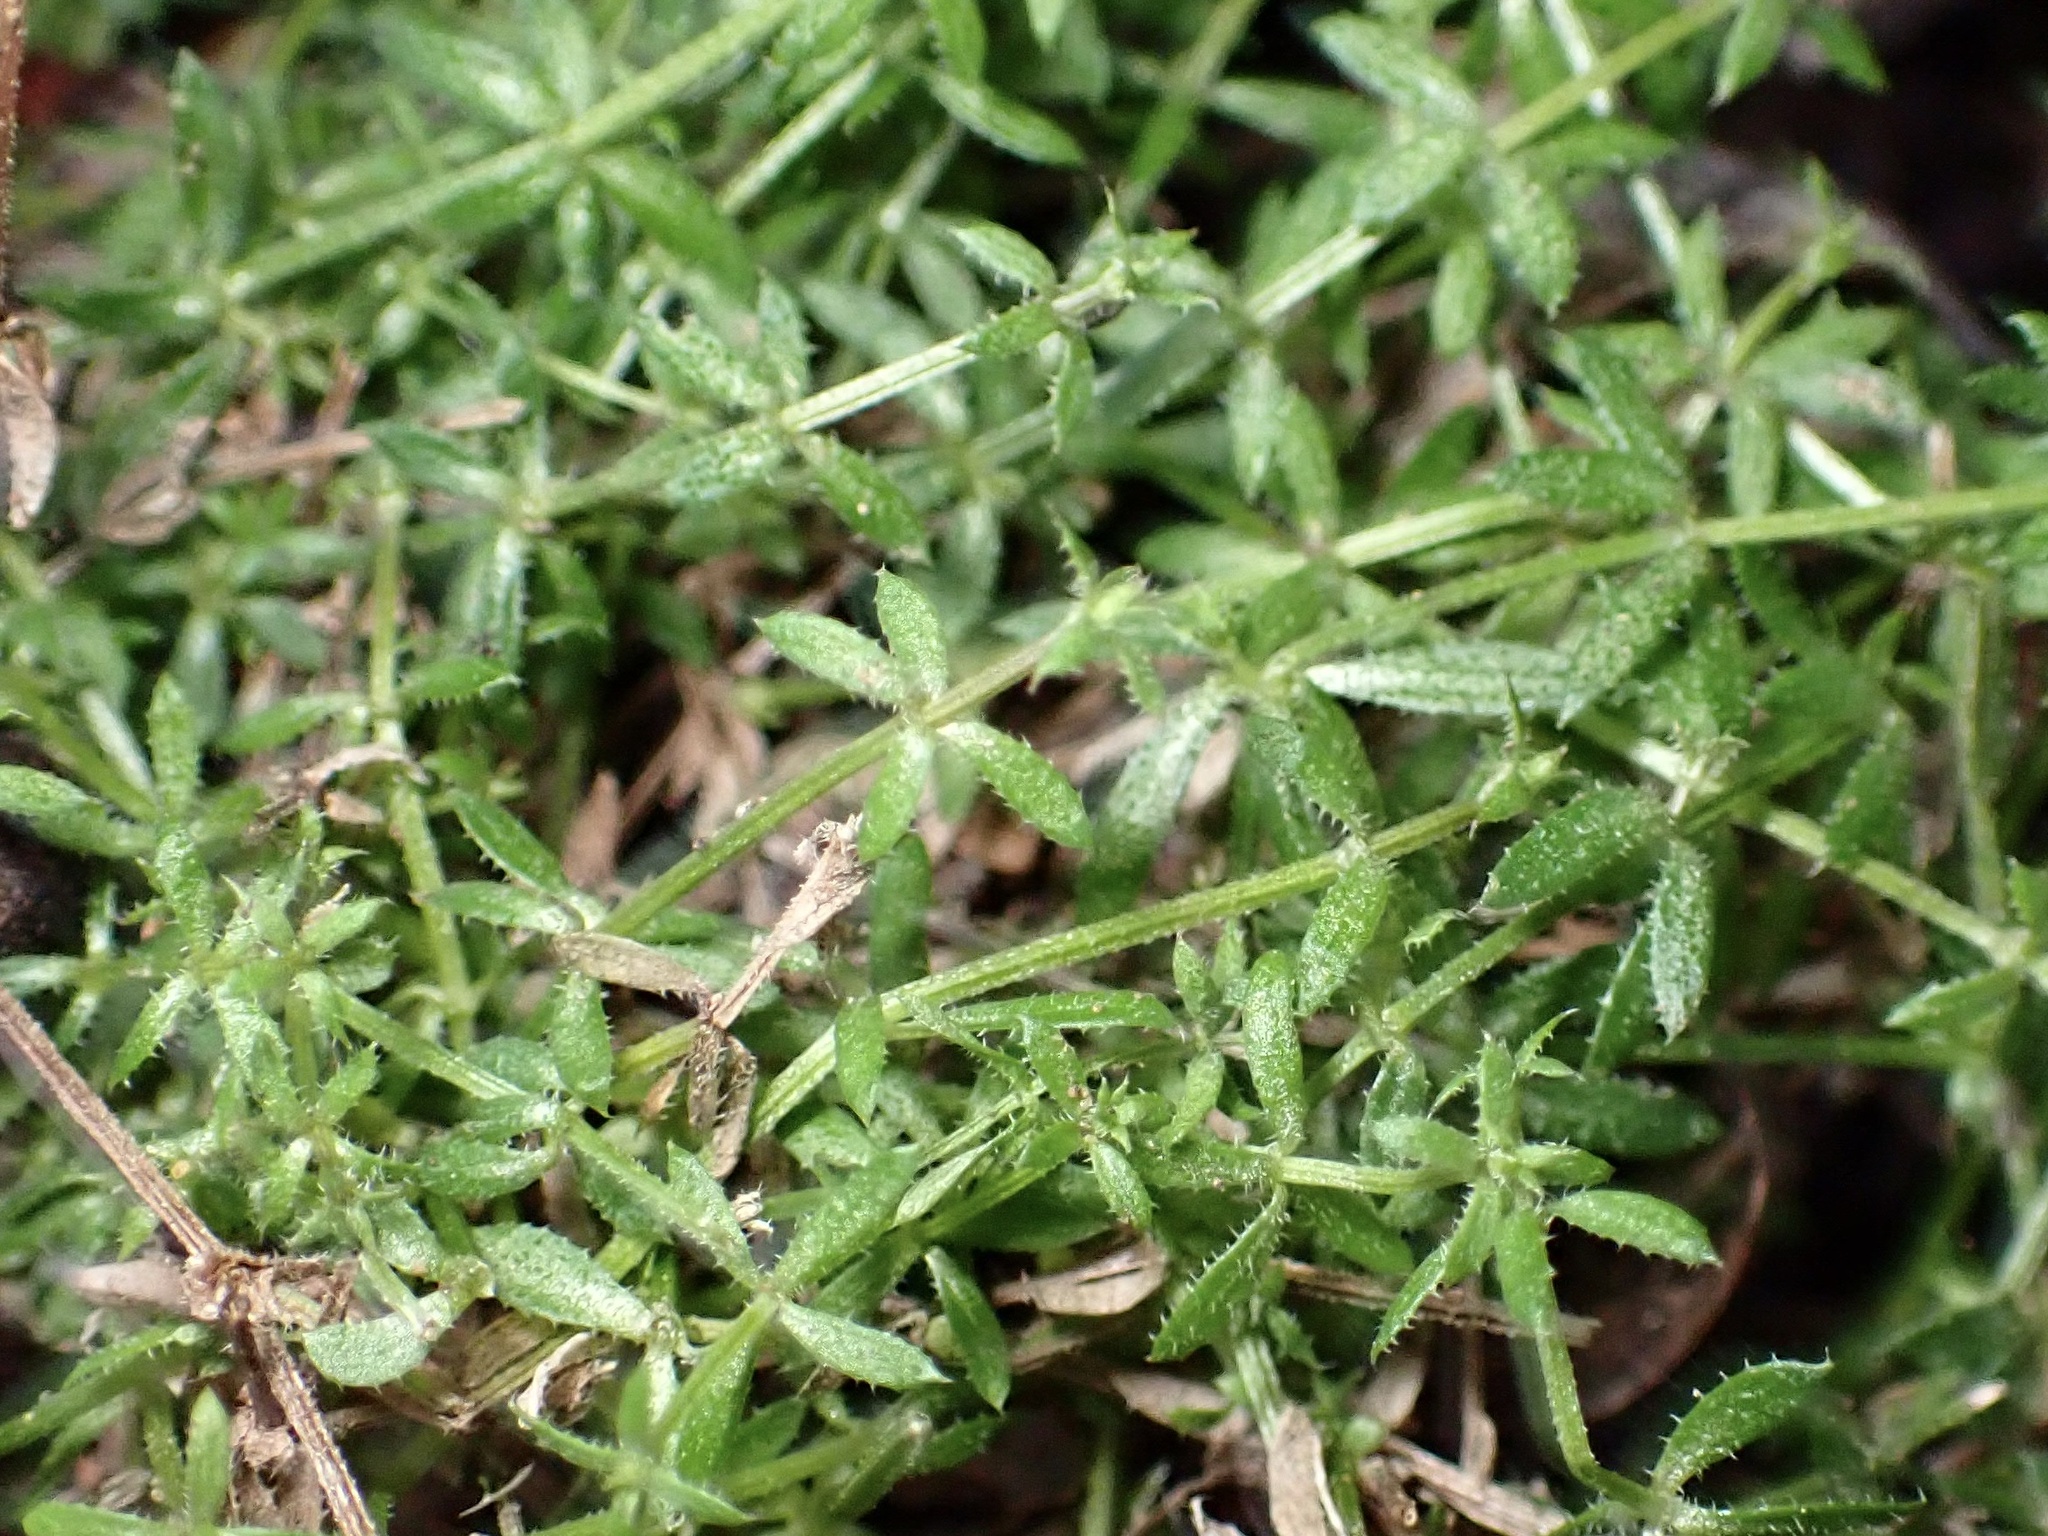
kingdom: Plantae
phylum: Tracheophyta
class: Magnoliopsida
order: Gentianales
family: Rubiaceae
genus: Galium
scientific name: Galium nuttallii
